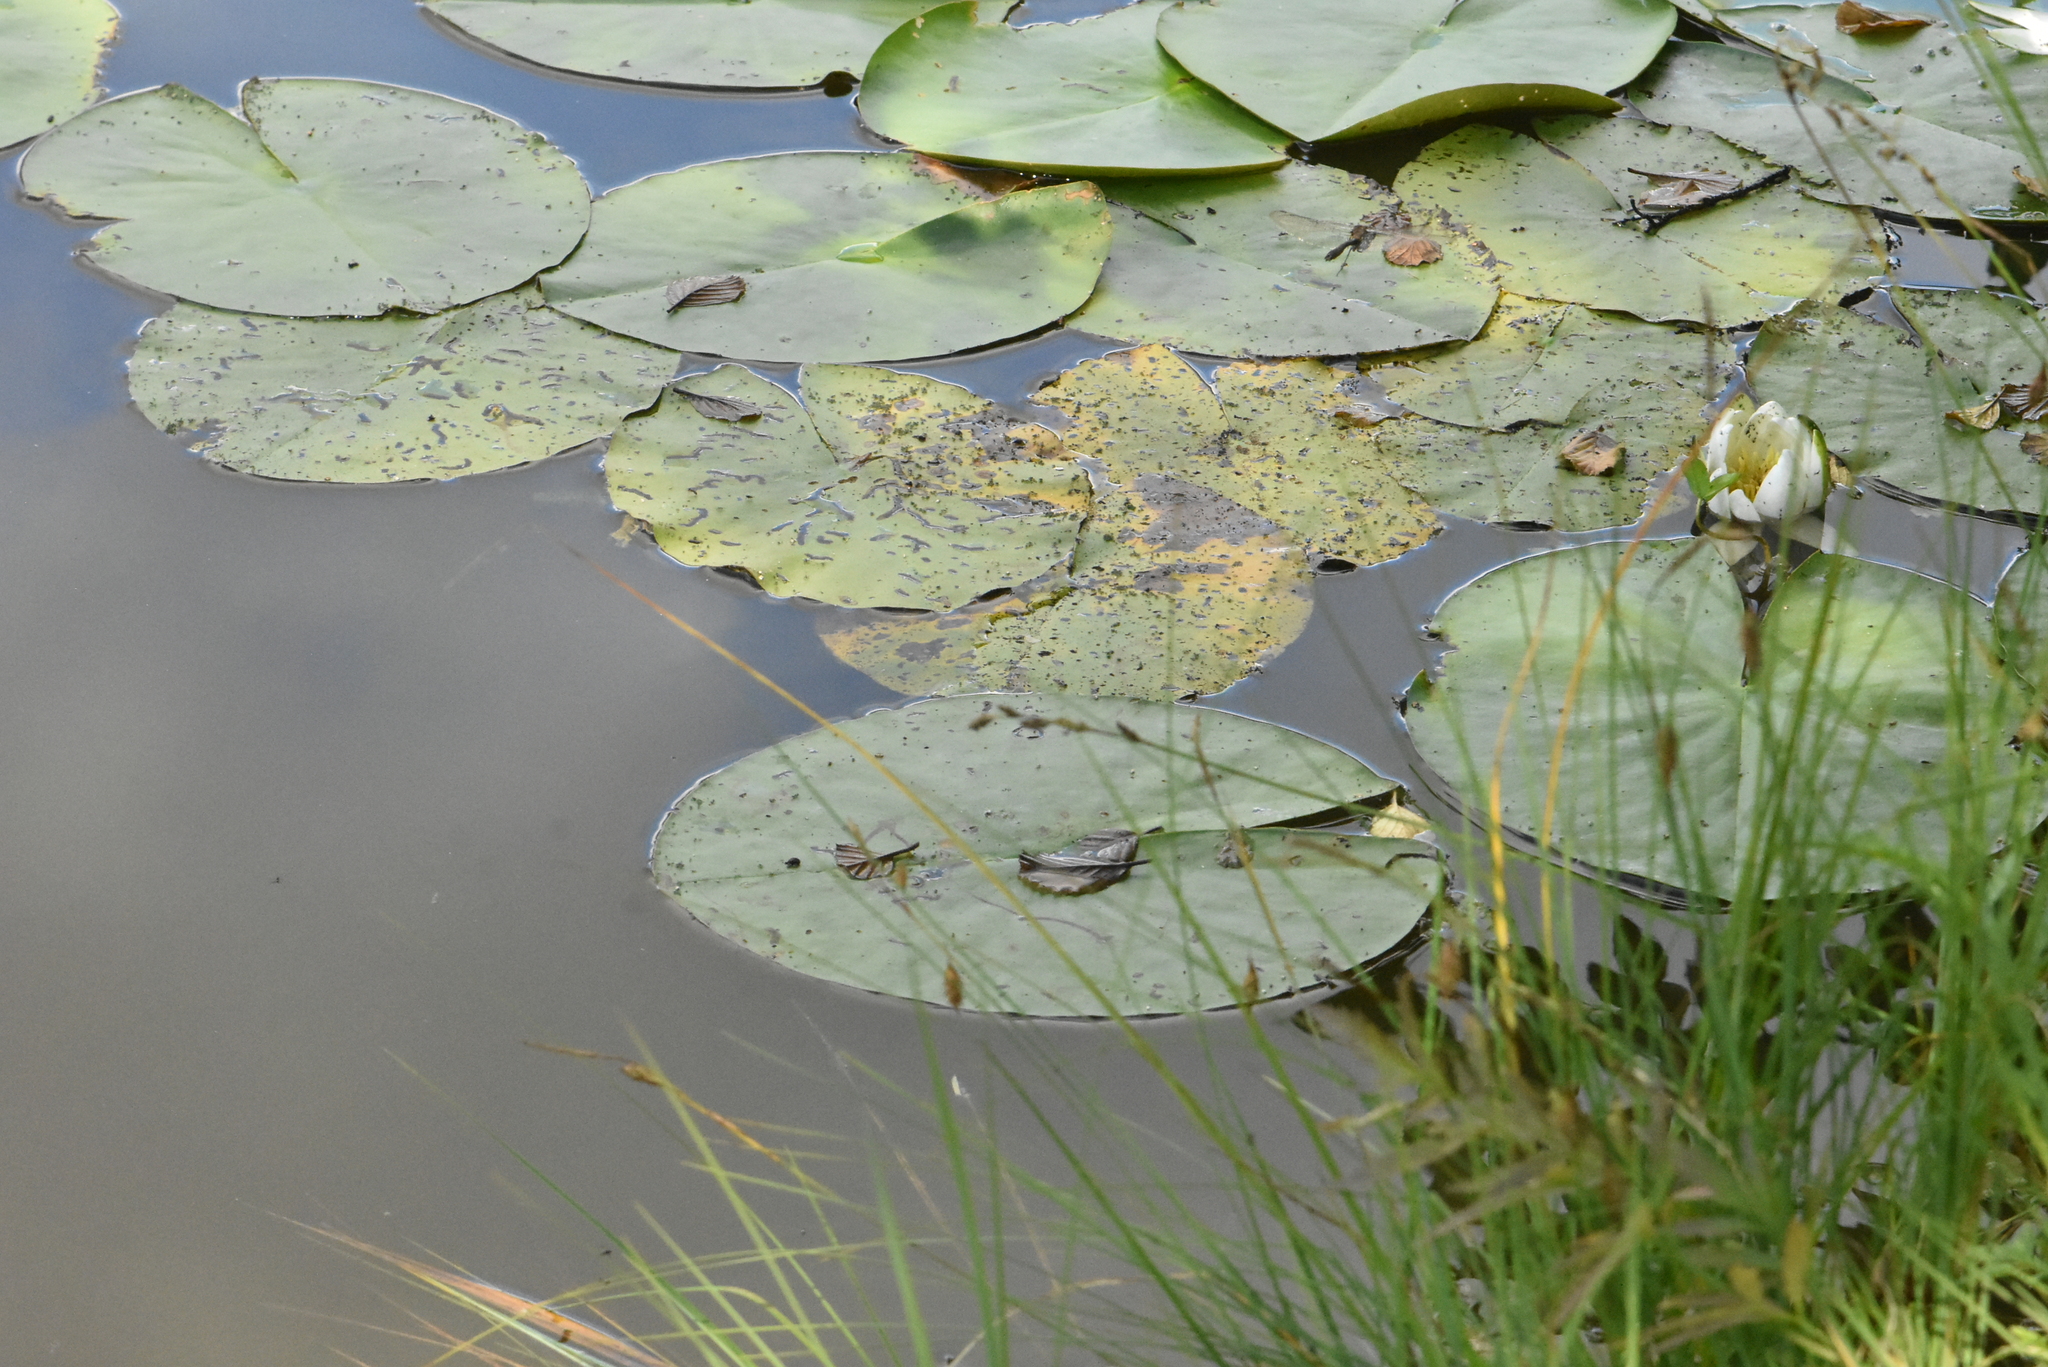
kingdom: Plantae
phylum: Tracheophyta
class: Magnoliopsida
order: Nymphaeales
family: Nymphaeaceae
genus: Nymphaea
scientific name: Nymphaea candida
